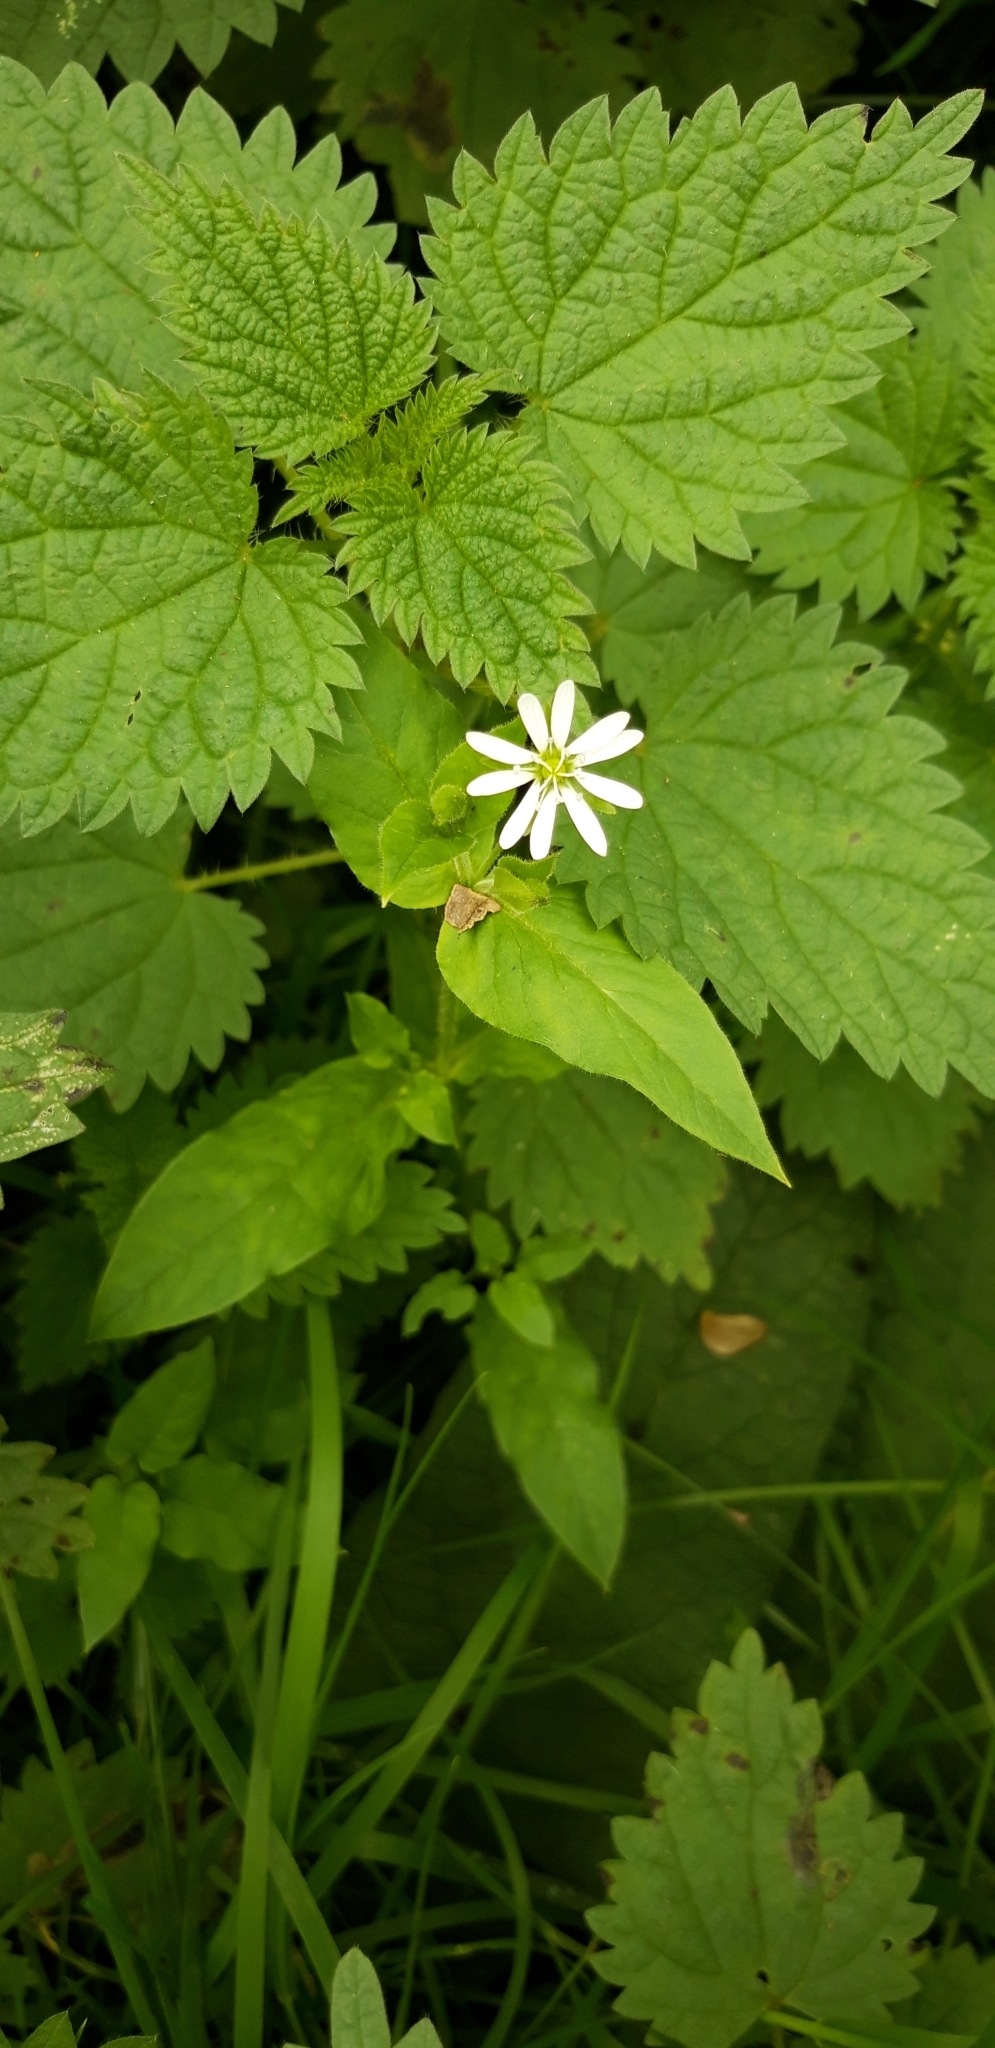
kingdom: Plantae
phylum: Tracheophyta
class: Magnoliopsida
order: Caryophyllales
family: Caryophyllaceae
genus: Stellaria
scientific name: Stellaria aquatica
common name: Water chickweed
